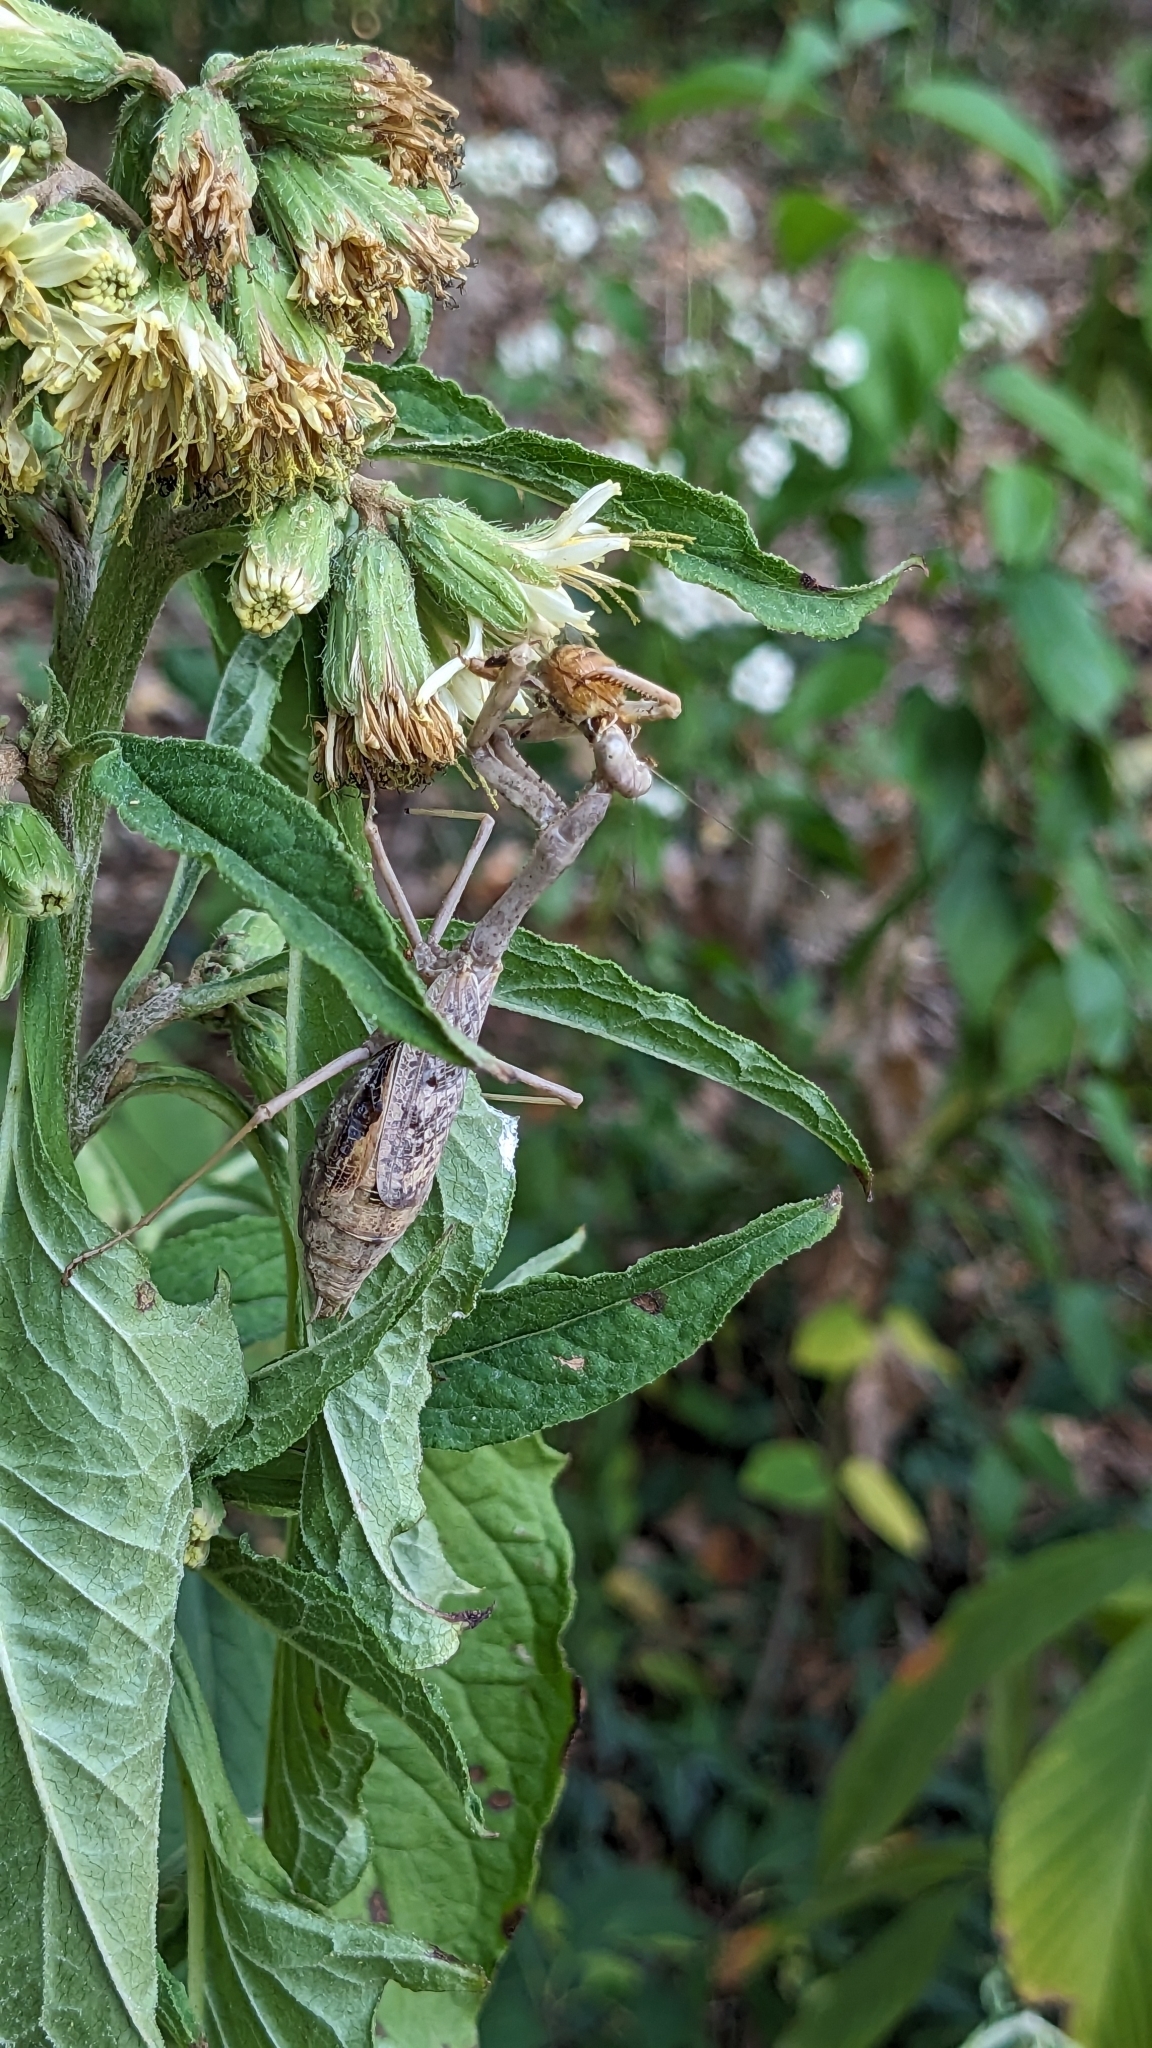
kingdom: Animalia
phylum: Arthropoda
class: Insecta
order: Mantodea
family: Mantidae
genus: Stagmomantis
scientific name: Stagmomantis carolina
